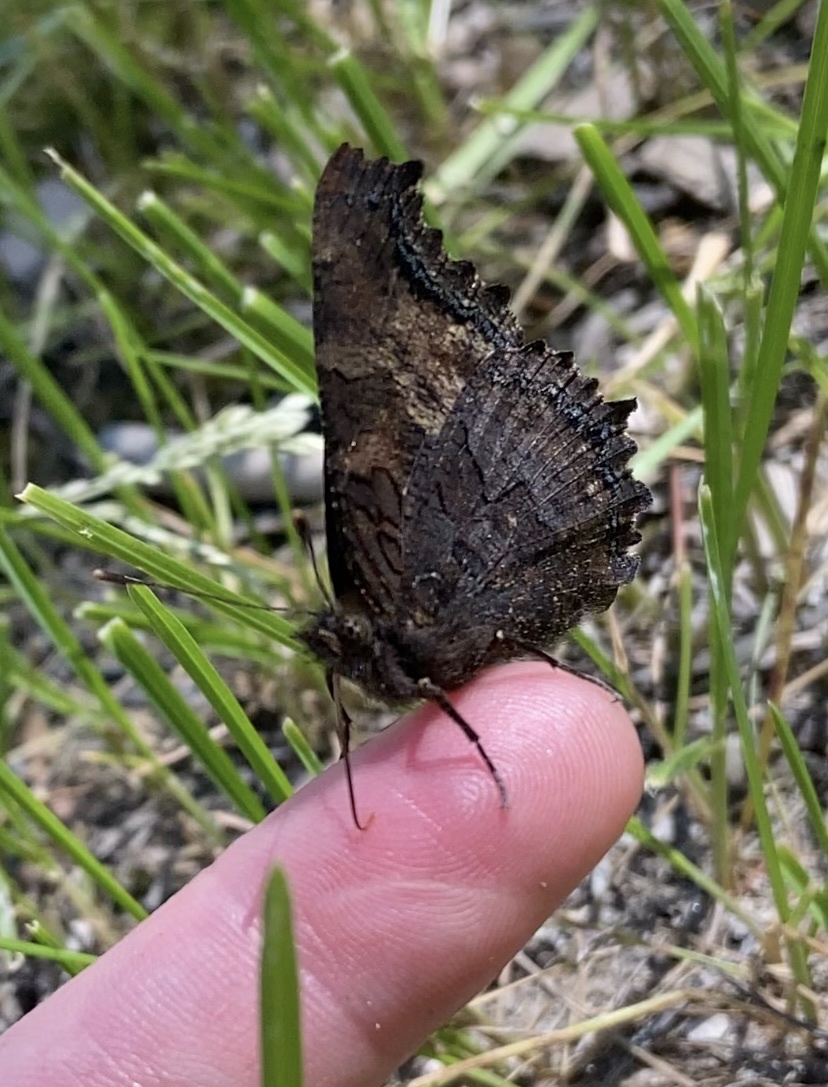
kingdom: Animalia
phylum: Arthropoda
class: Insecta
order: Lepidoptera
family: Nymphalidae
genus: Nymphalis
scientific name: Nymphalis californica
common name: California tortoiseshell
